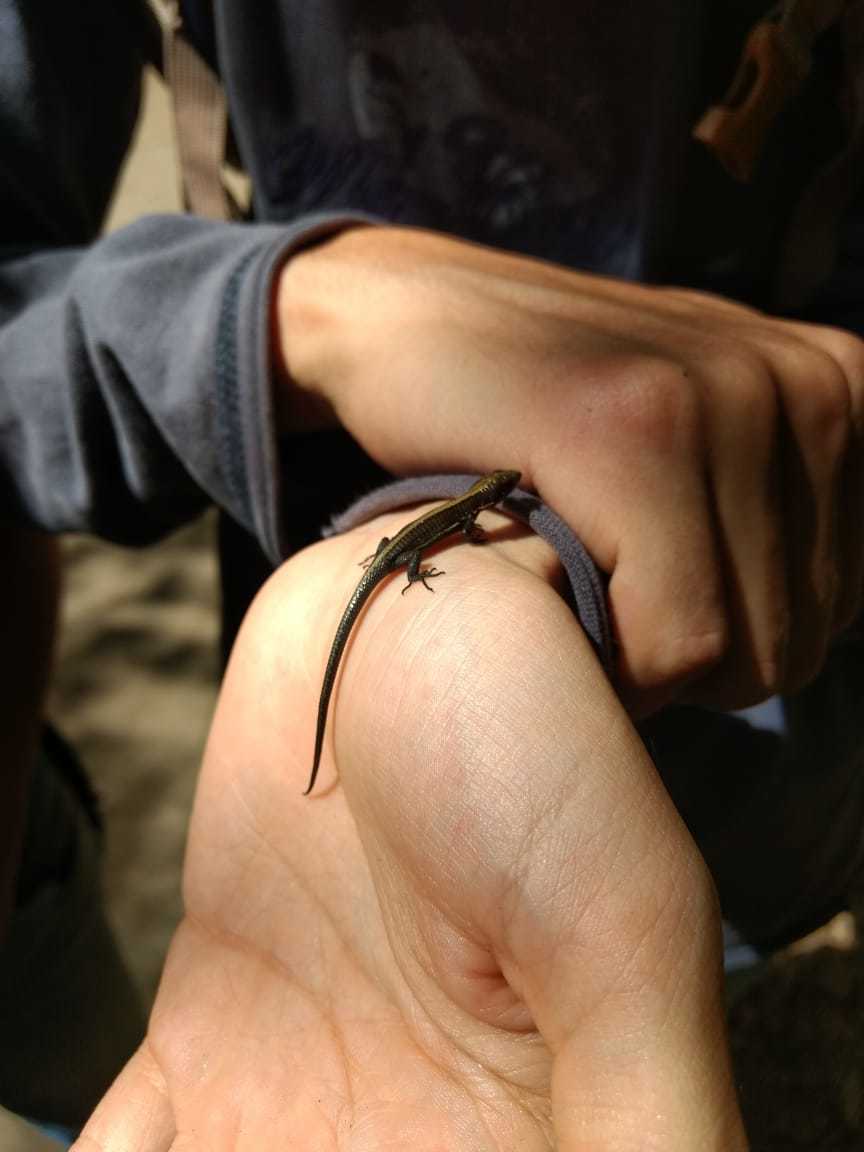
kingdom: Animalia
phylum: Chordata
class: Squamata
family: Gymnophthalmidae
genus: Pholidobolus
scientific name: Pholidobolus vertebralis
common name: Brown prionodactylus
